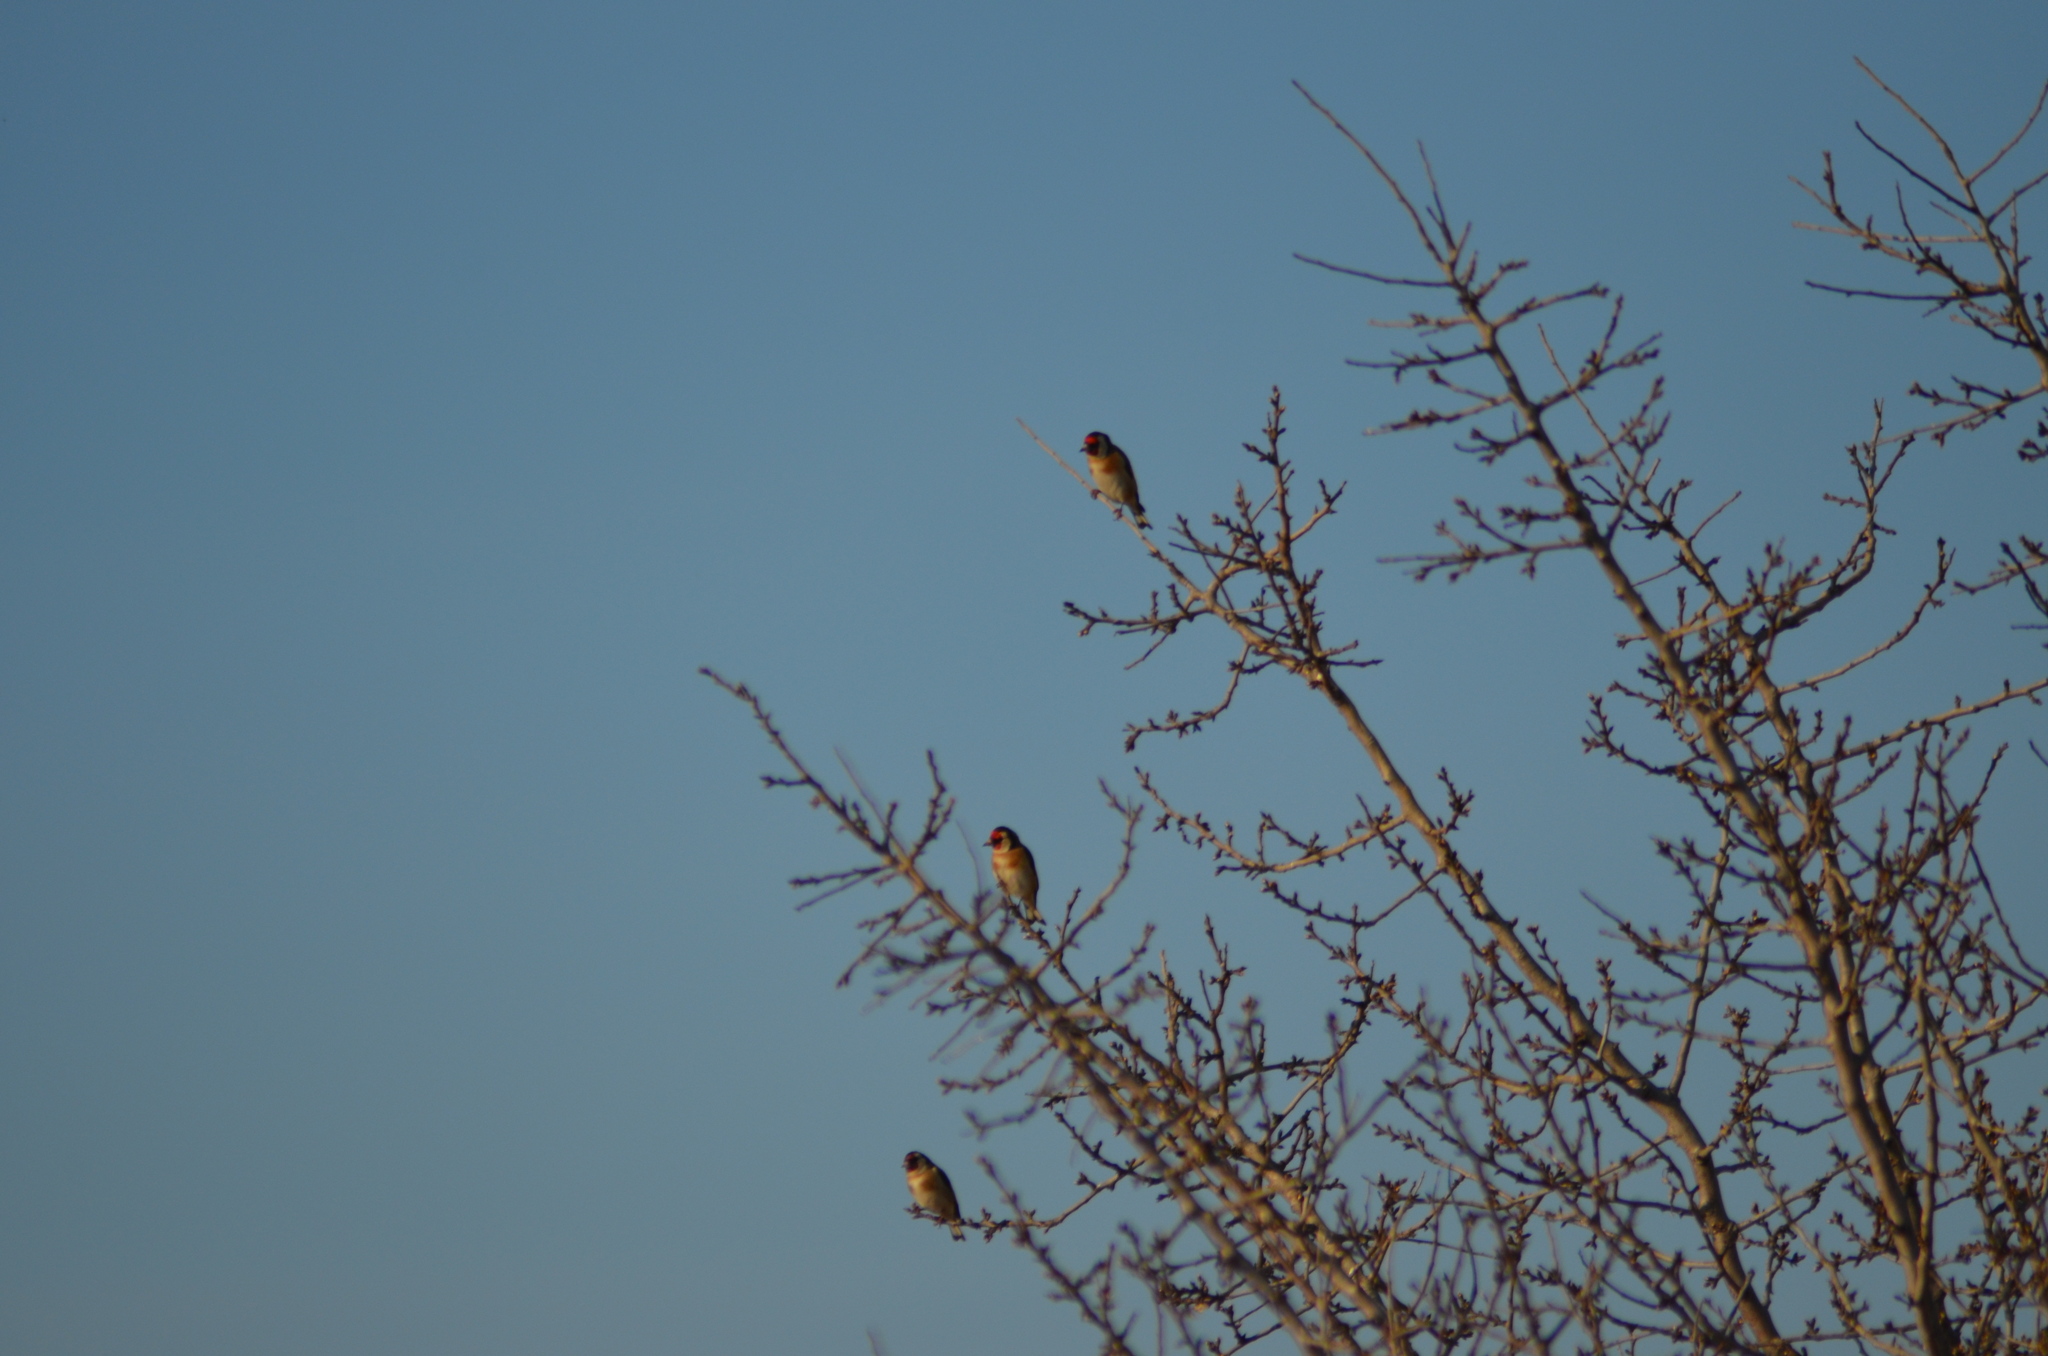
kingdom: Animalia
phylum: Chordata
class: Aves
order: Passeriformes
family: Fringillidae
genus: Carduelis
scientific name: Carduelis carduelis
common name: European goldfinch
